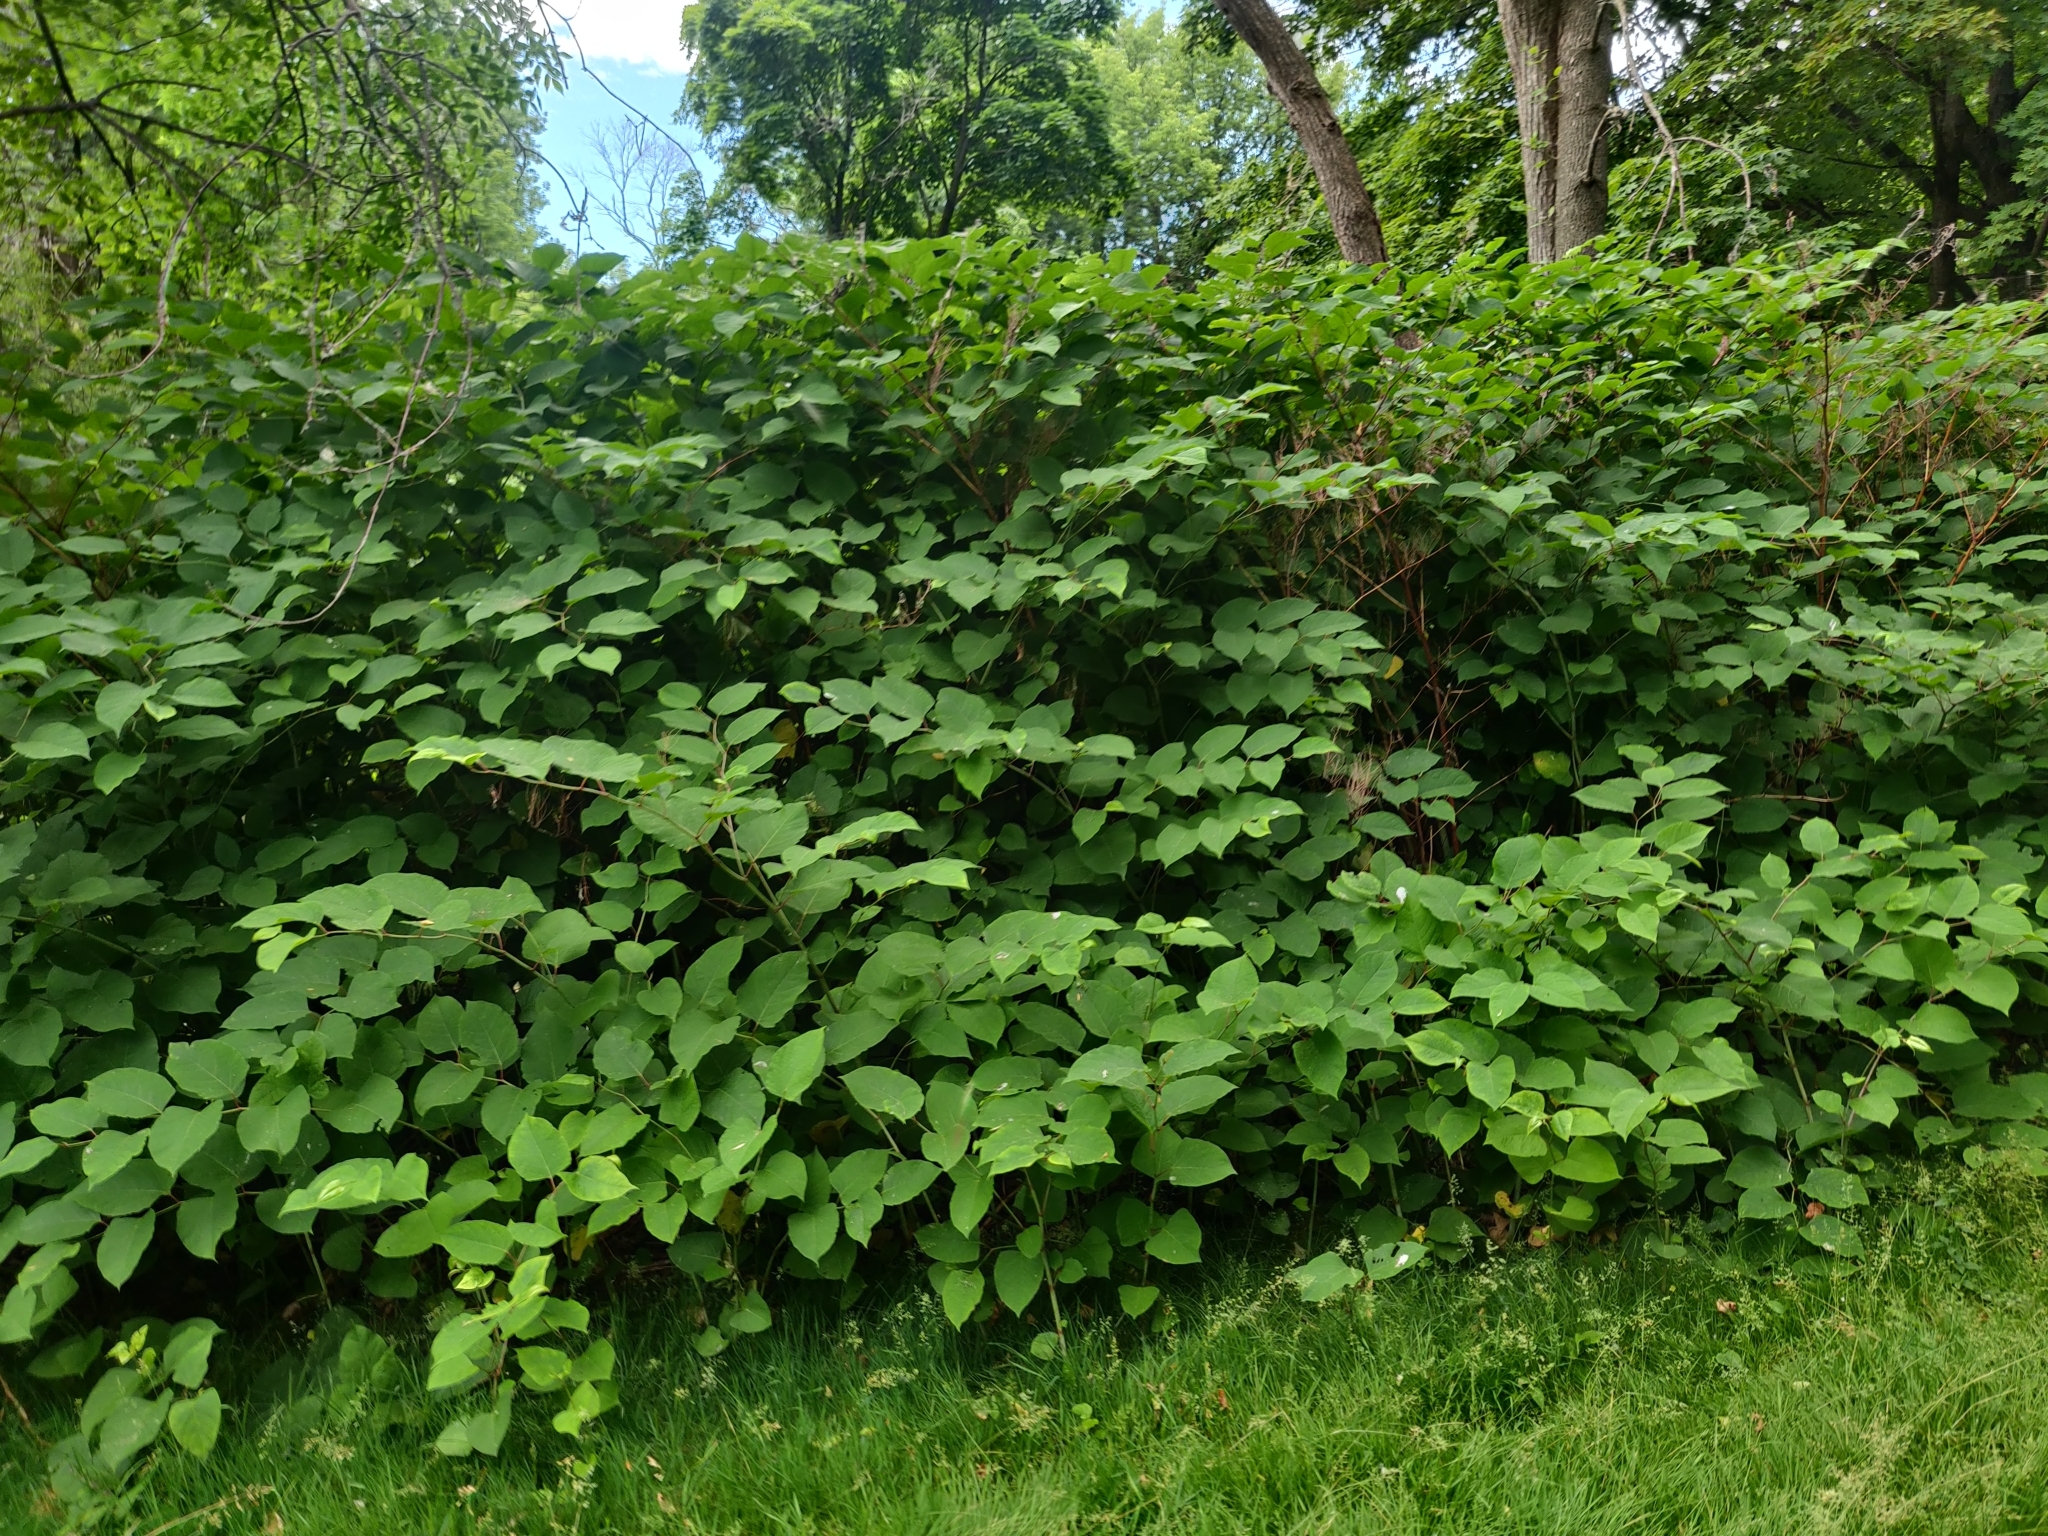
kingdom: Plantae
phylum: Tracheophyta
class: Magnoliopsida
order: Caryophyllales
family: Polygonaceae
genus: Reynoutria
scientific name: Reynoutria japonica
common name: Japanese knotweed
